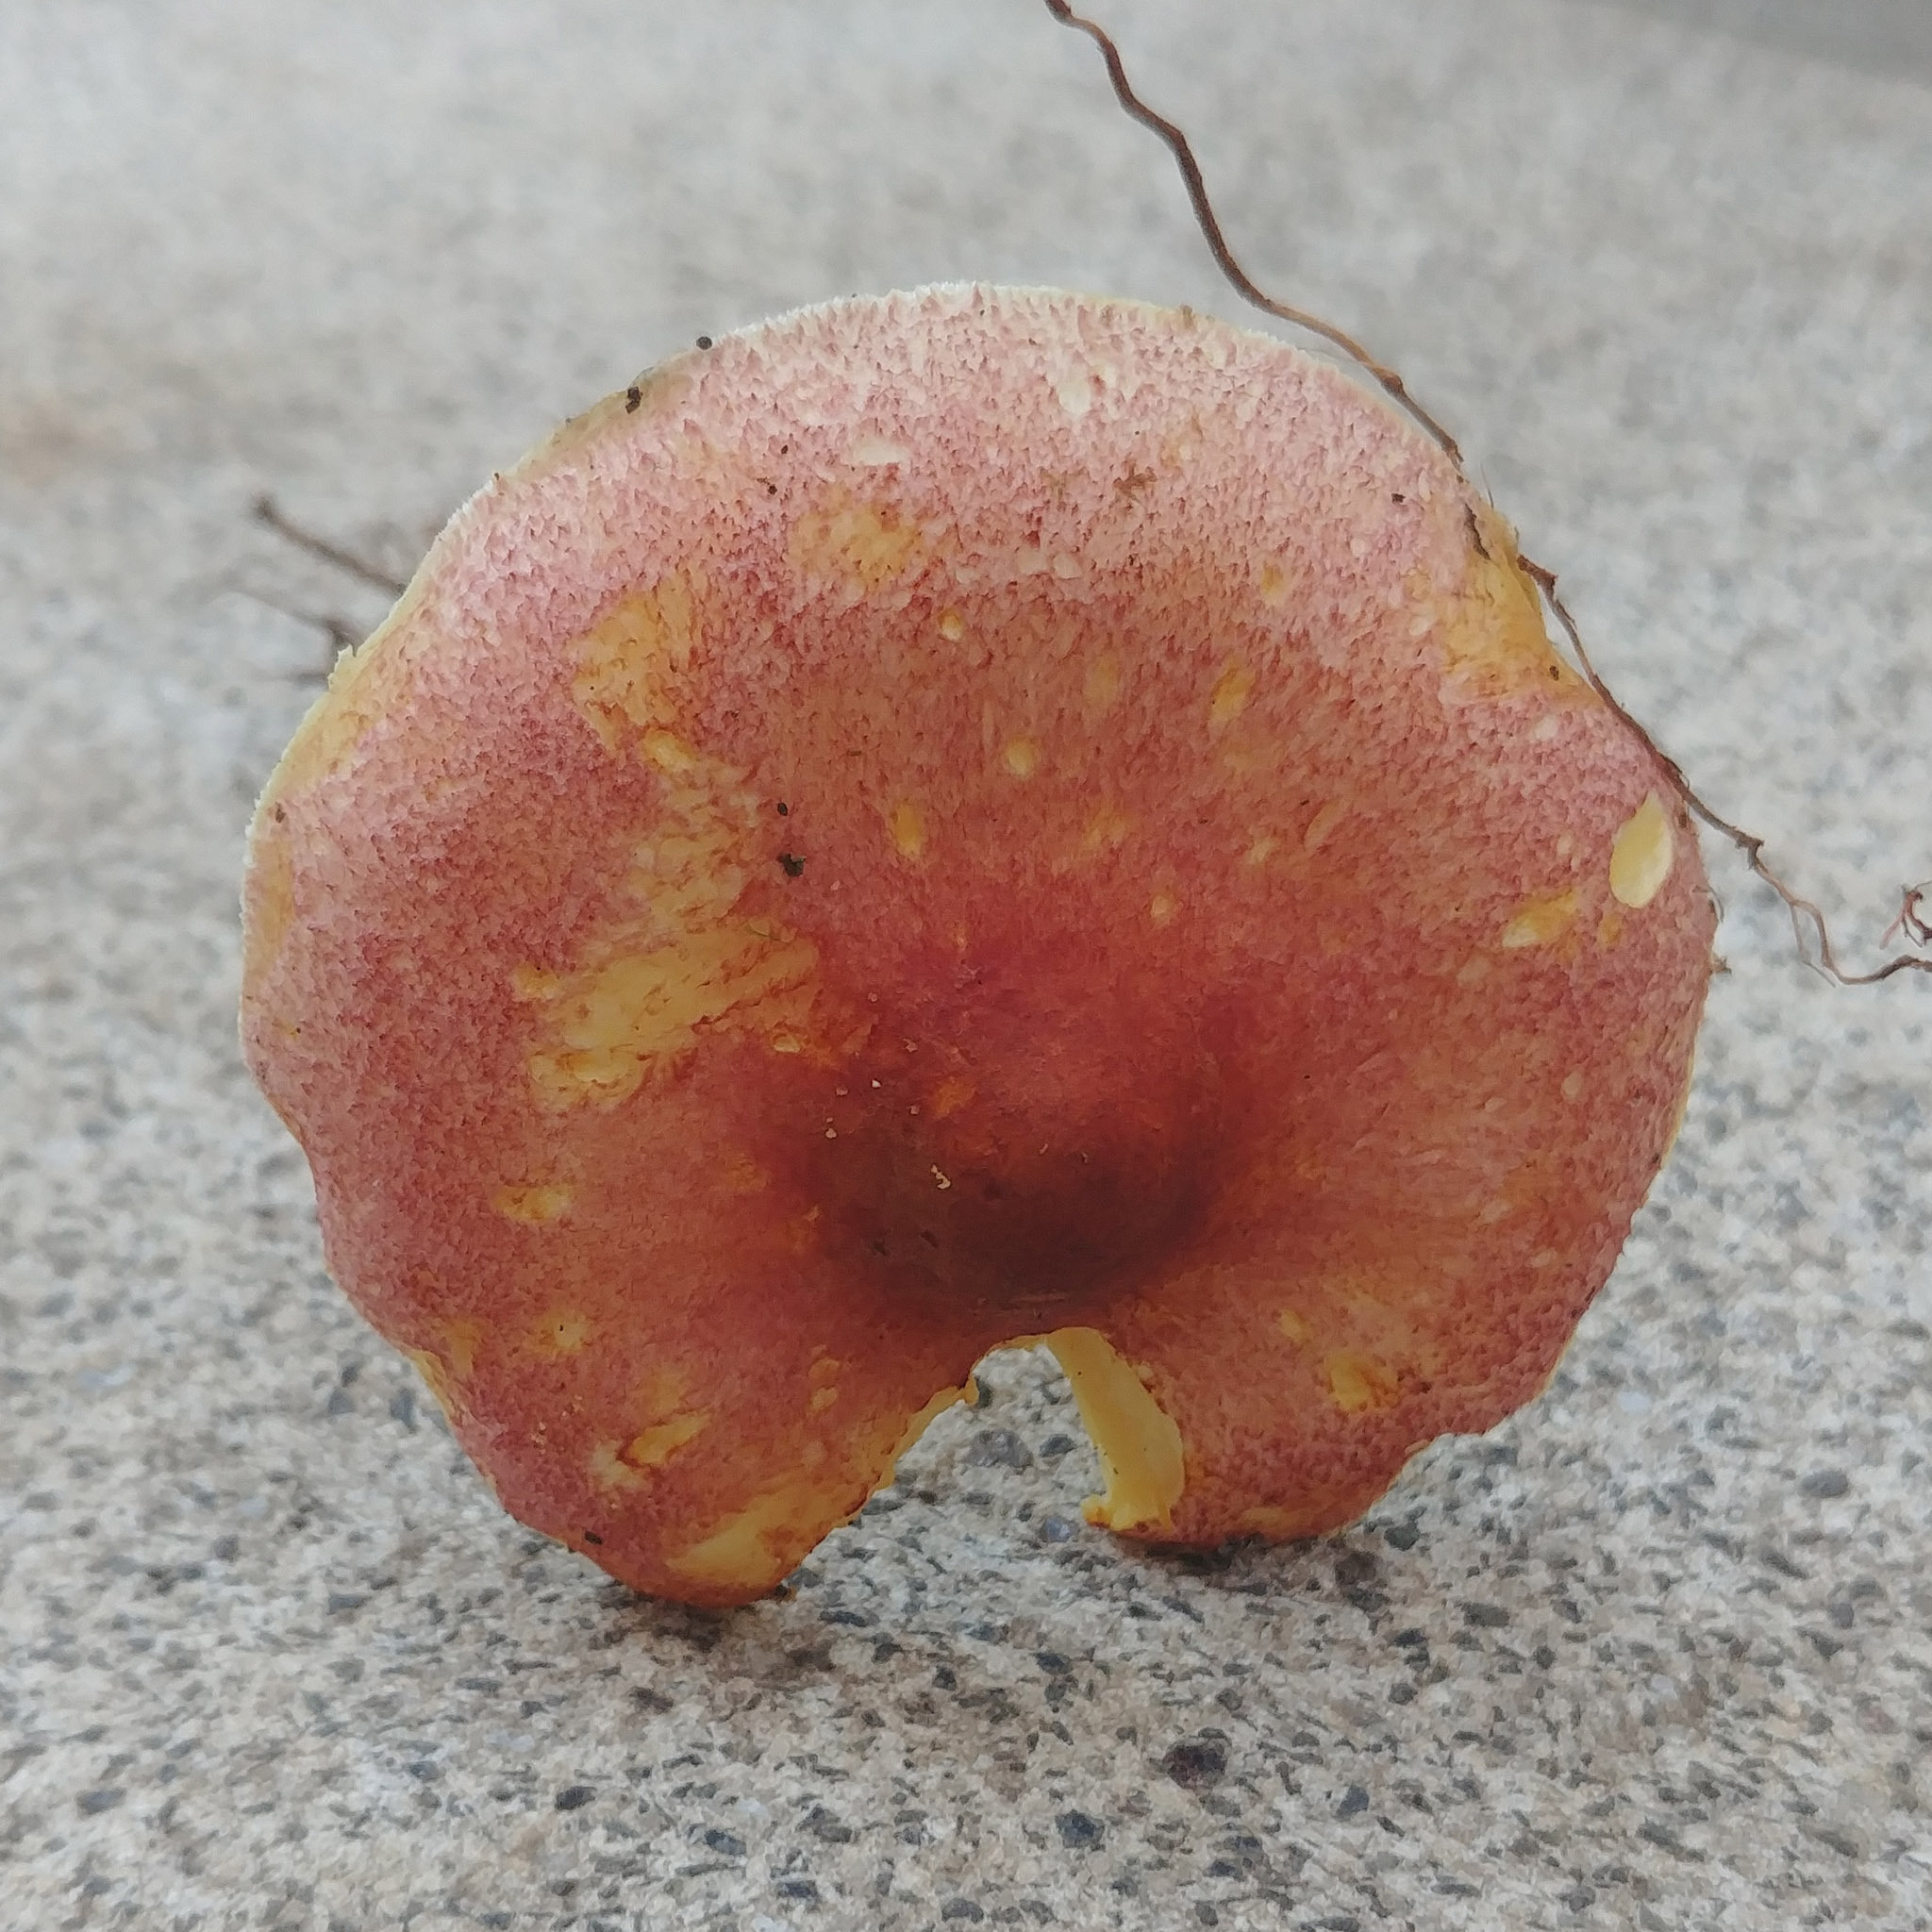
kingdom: Fungi
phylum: Basidiomycota
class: Agaricomycetes
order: Agaricales
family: Tricholomataceae
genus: Tricholomopsis
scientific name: Tricholomopsis rutilans
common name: Plums and custard
